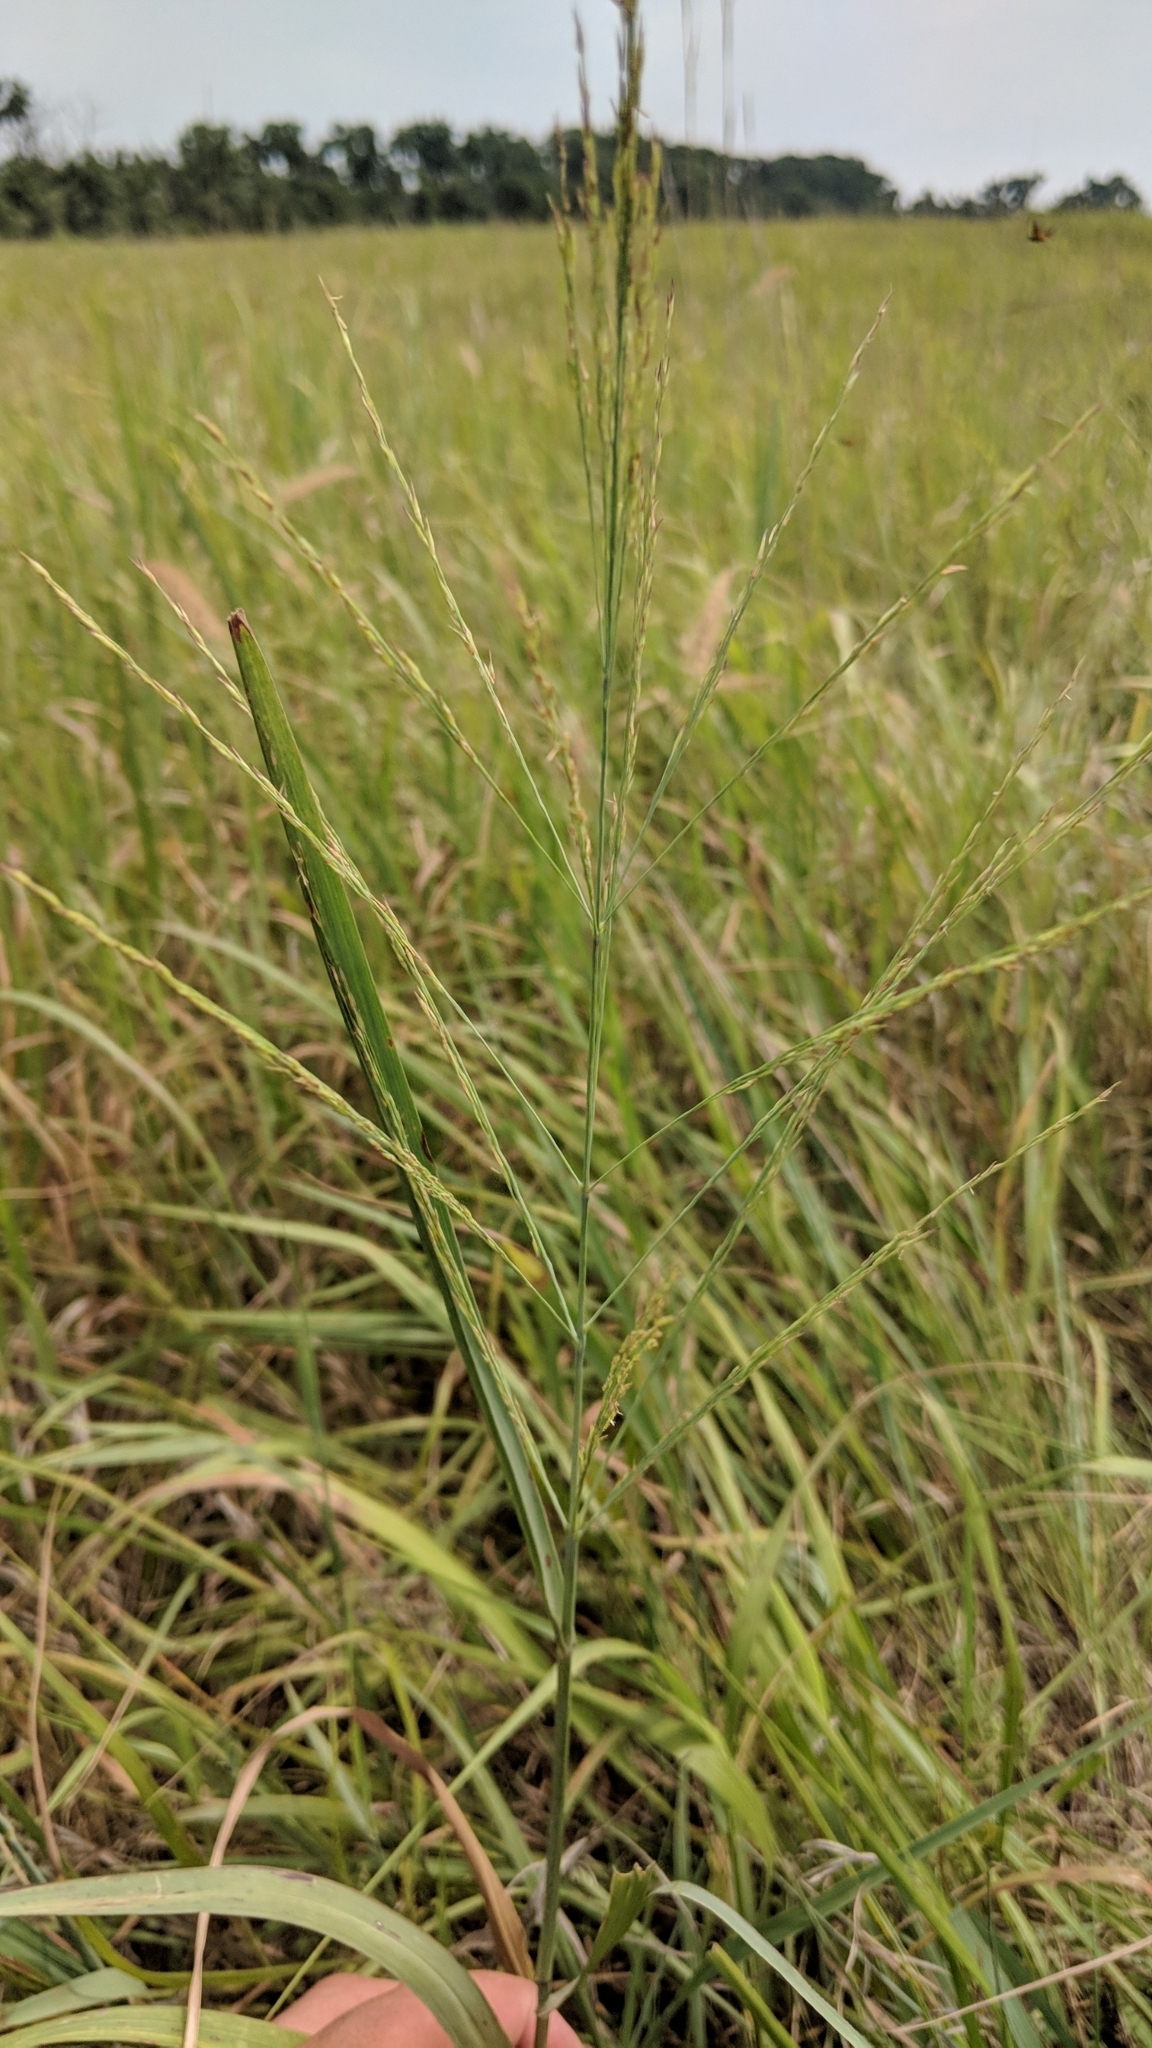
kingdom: Plantae
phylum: Tracheophyta
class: Liliopsida
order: Poales
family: Poaceae
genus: Panicum
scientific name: Panicum virgatum
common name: Switchgrass
